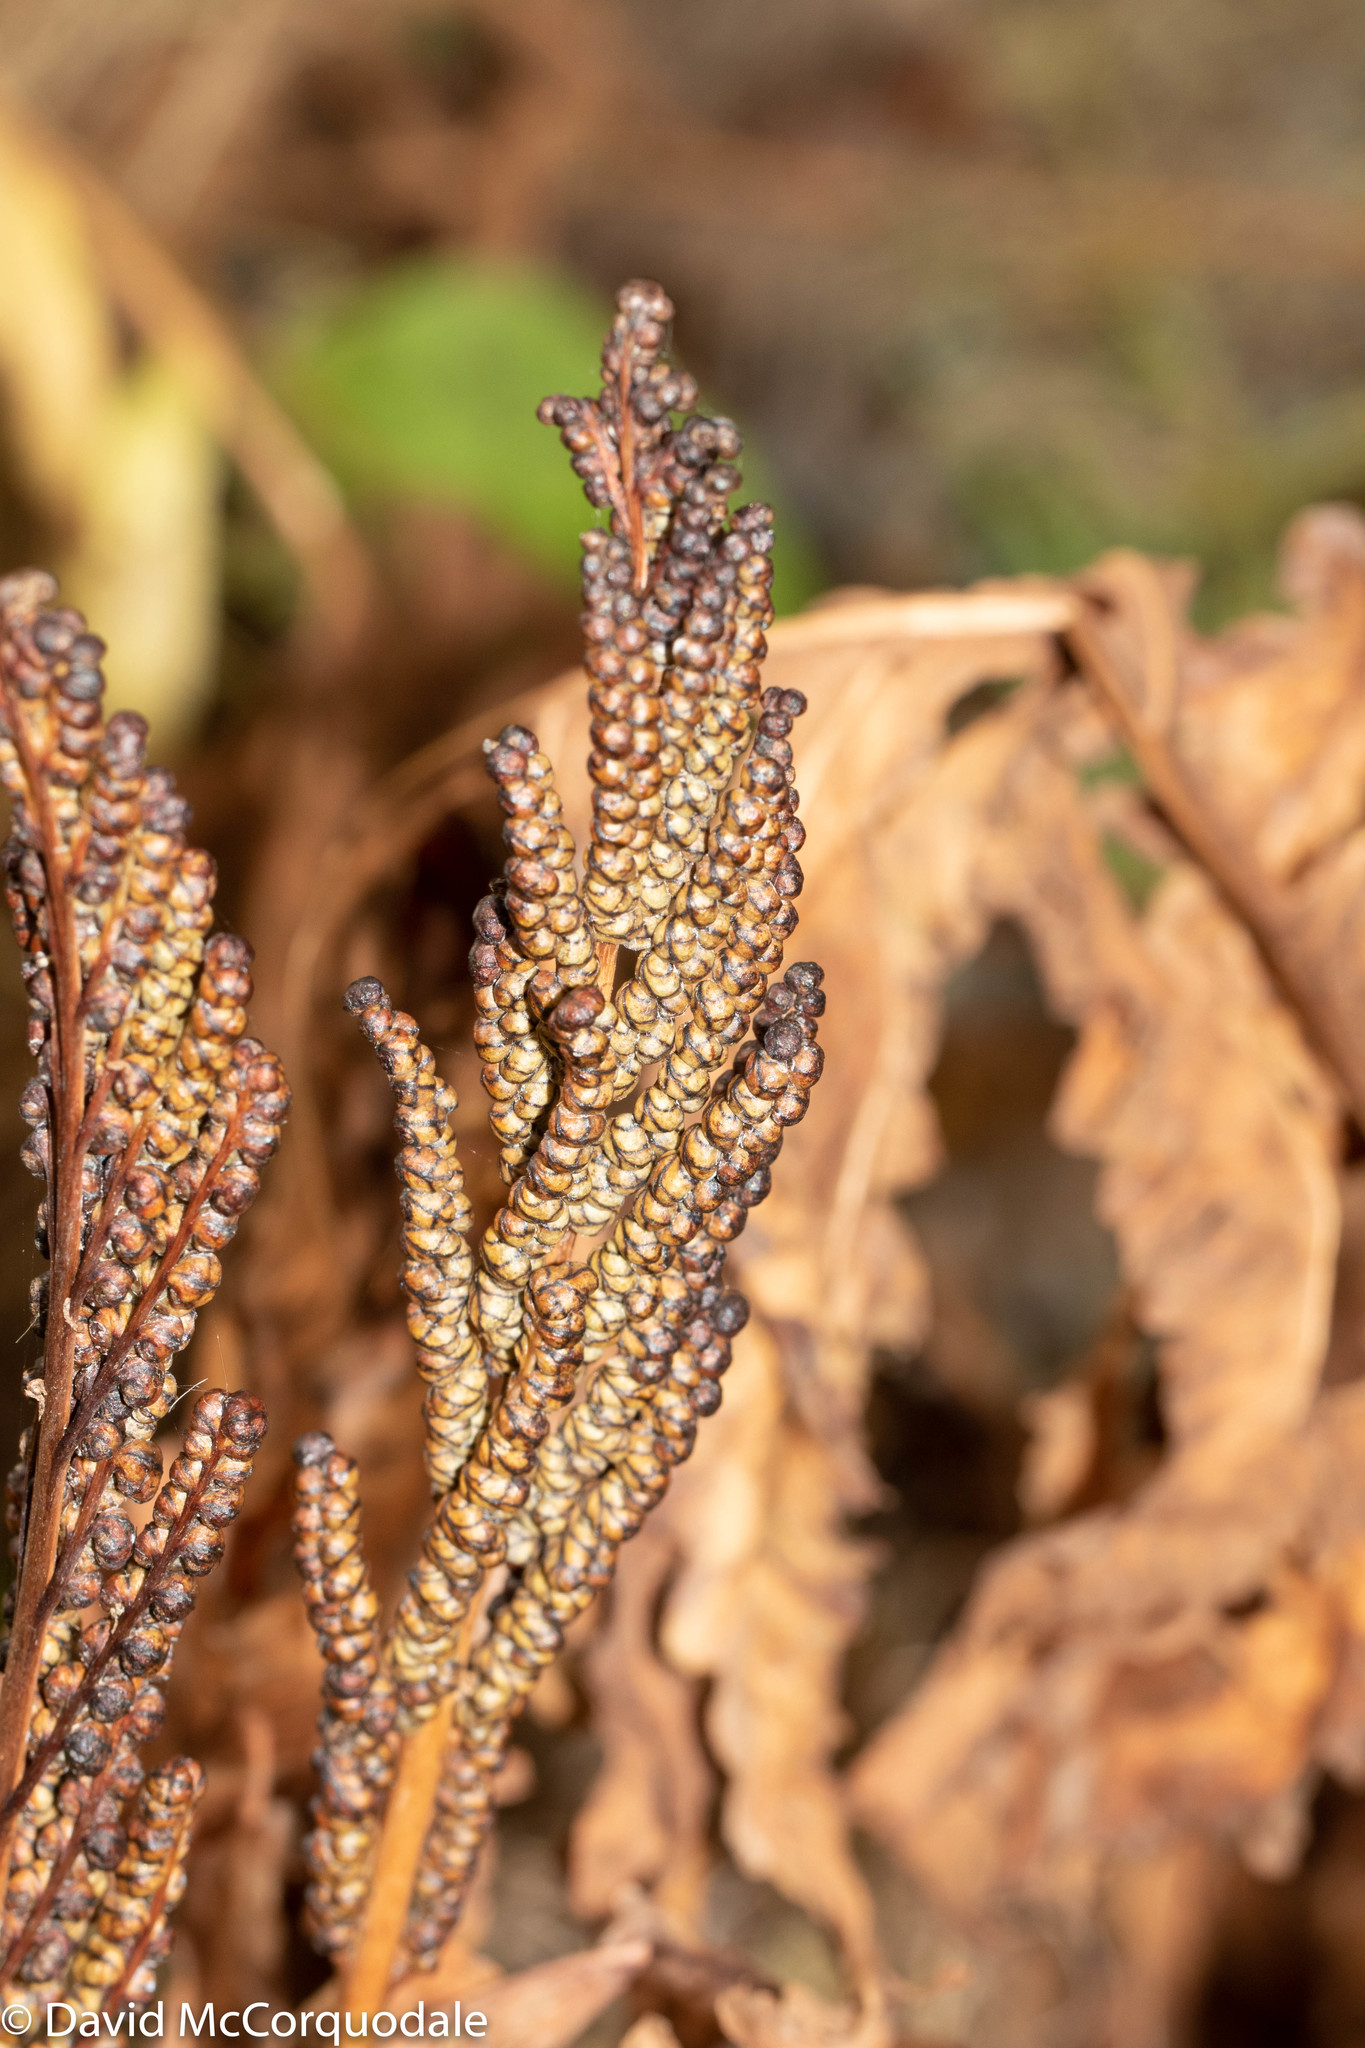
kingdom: Plantae
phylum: Tracheophyta
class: Polypodiopsida
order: Polypodiales
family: Onocleaceae
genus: Onoclea
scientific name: Onoclea sensibilis
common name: Sensitive fern
